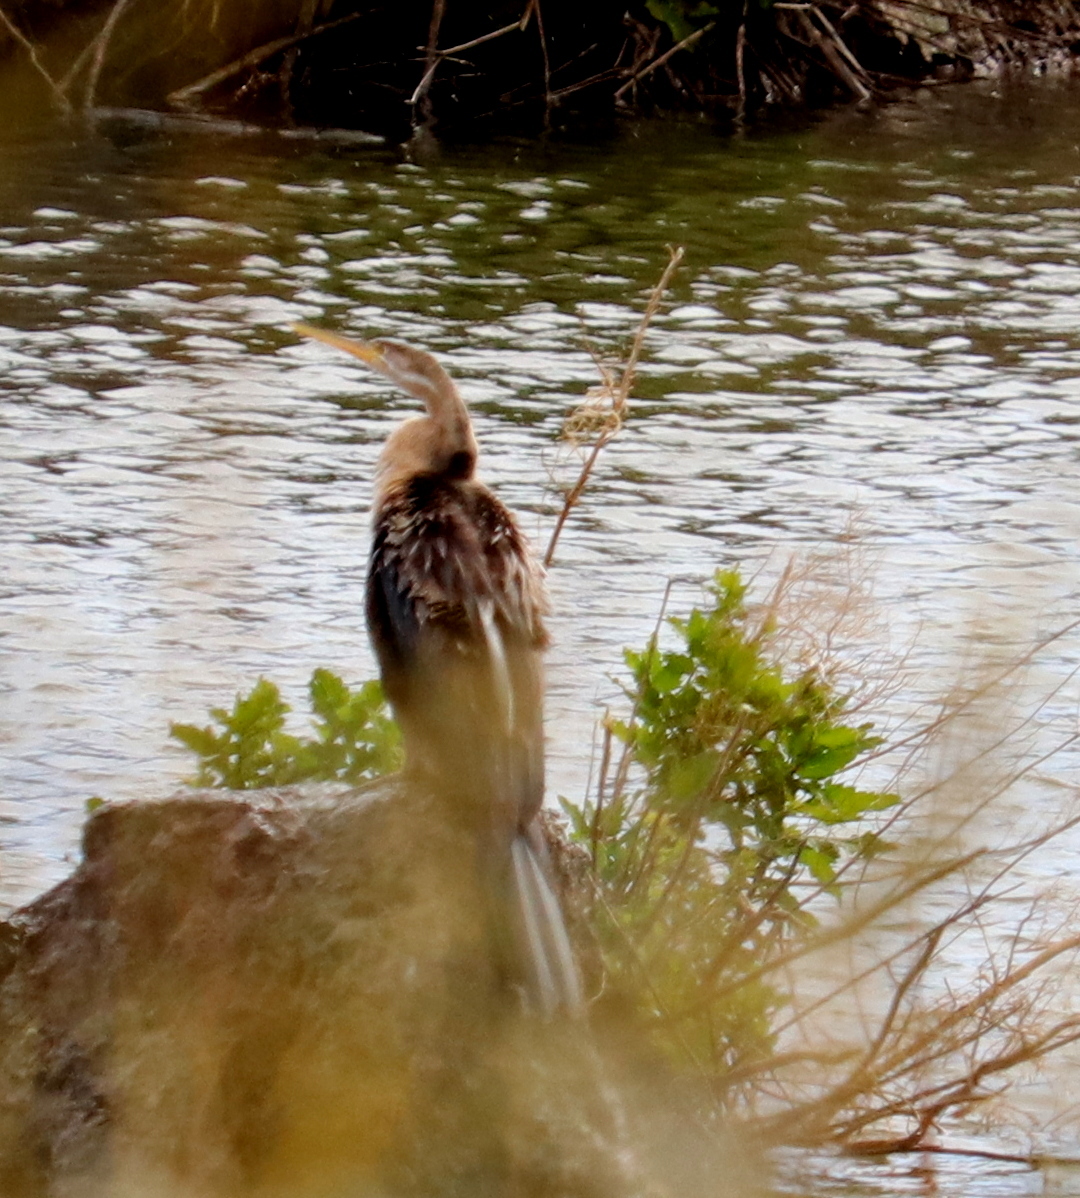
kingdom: Animalia
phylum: Chordata
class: Aves
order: Suliformes
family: Anhingidae
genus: Anhinga
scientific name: Anhinga rufa
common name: African darter
